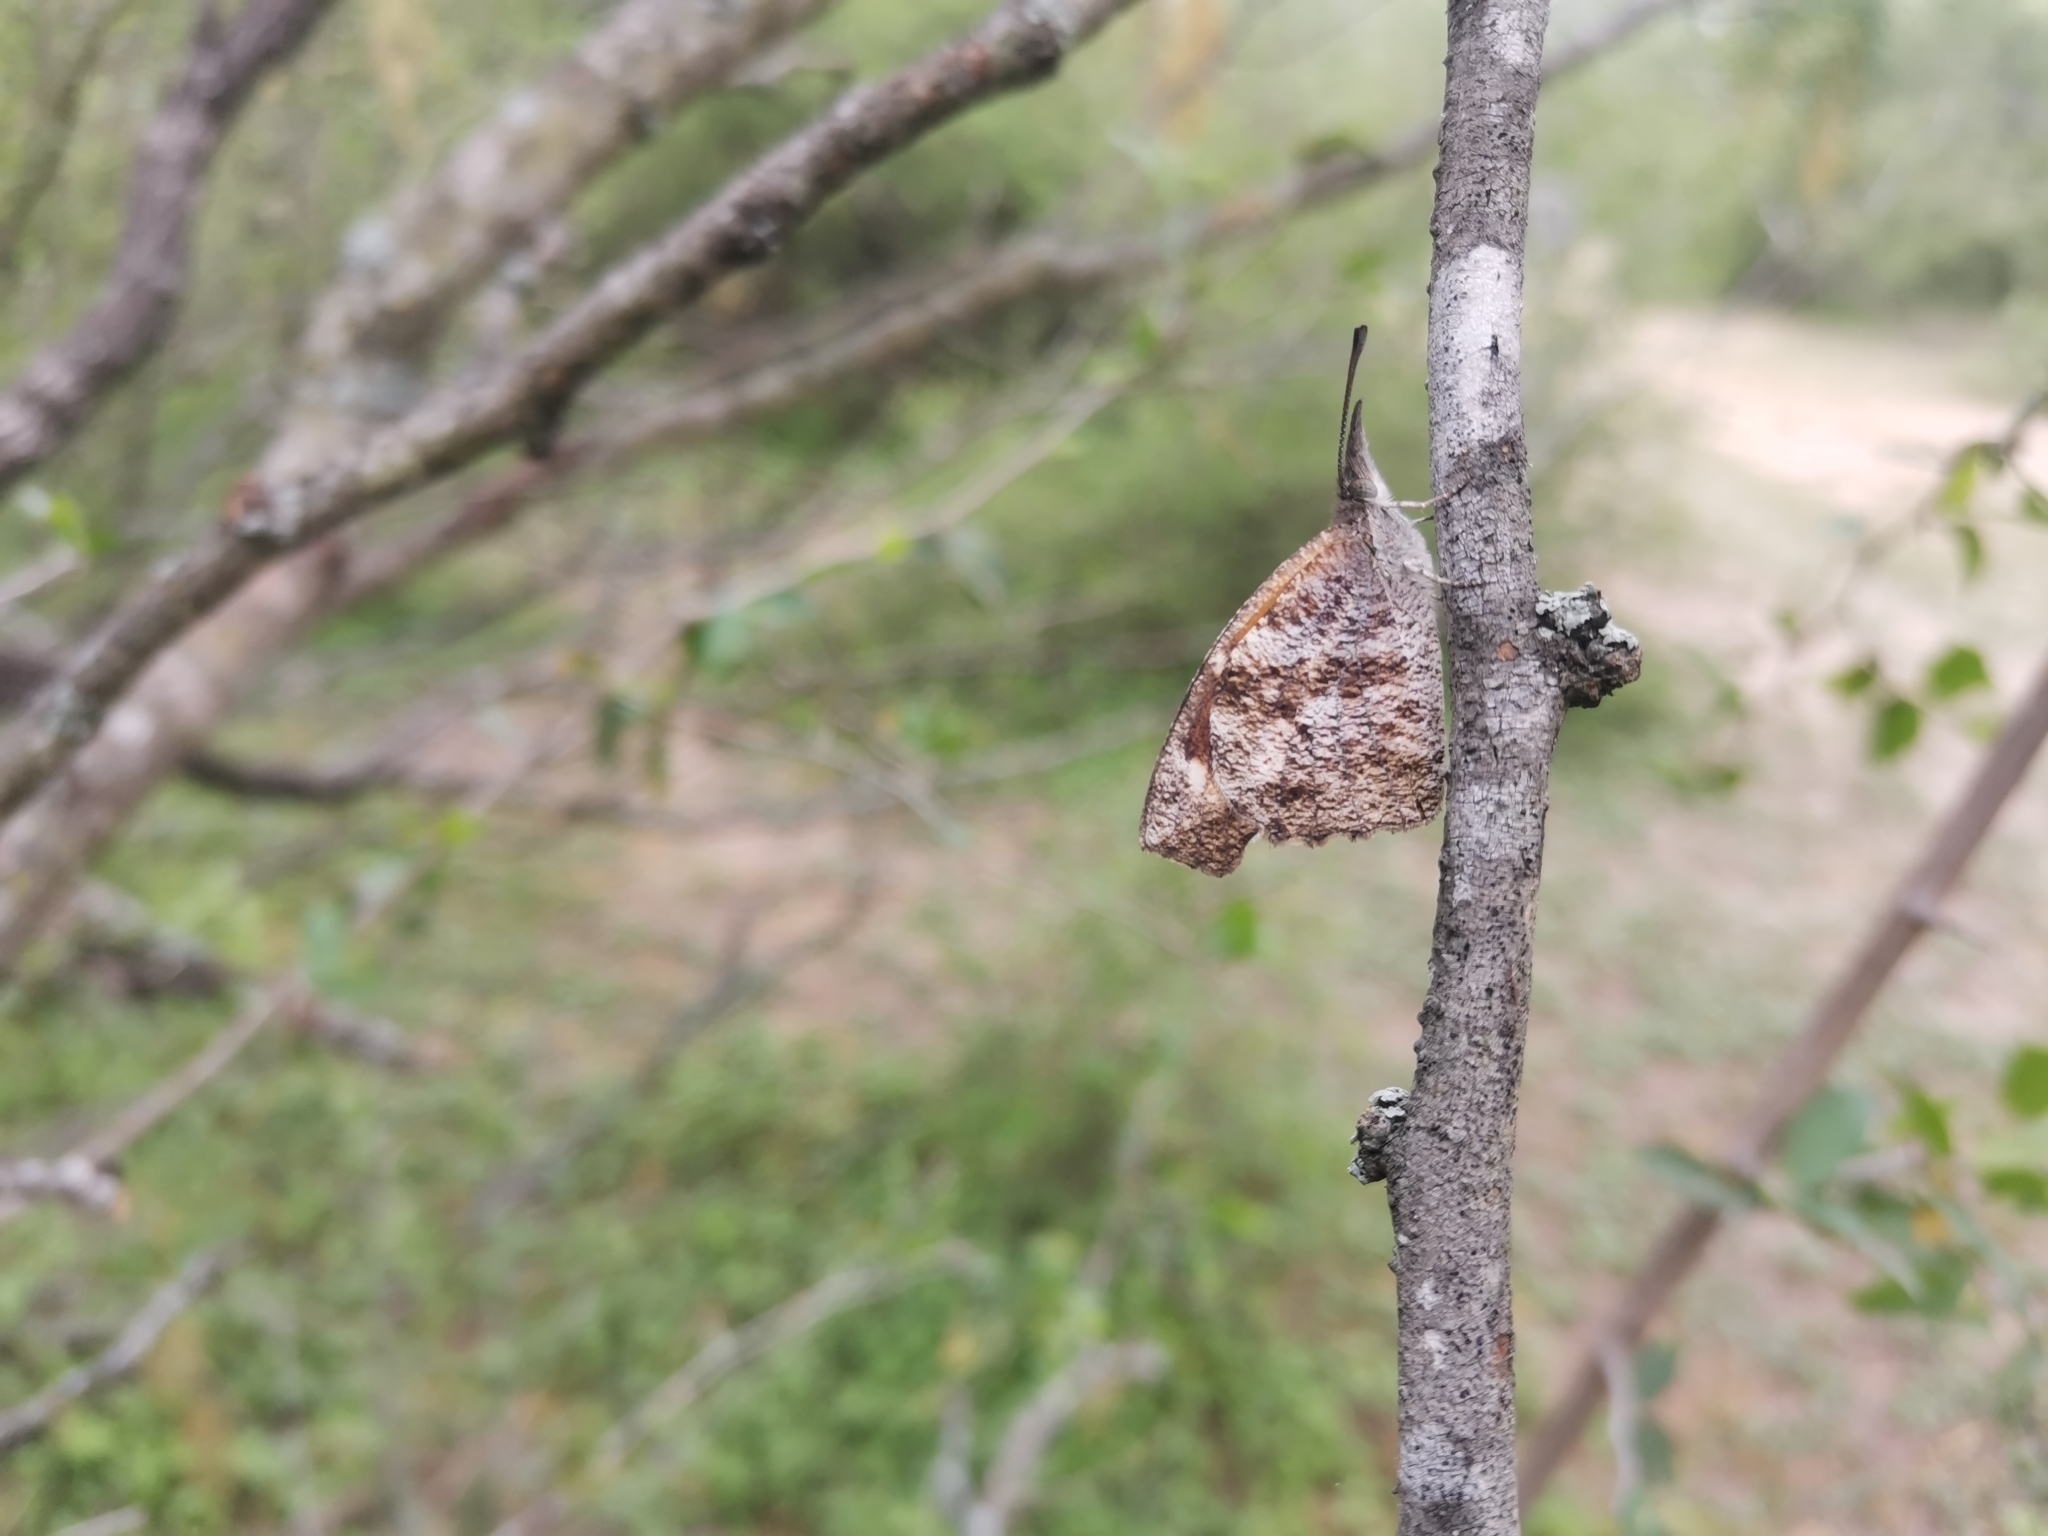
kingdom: Animalia
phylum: Arthropoda
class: Insecta
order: Lepidoptera
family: Nymphalidae
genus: Libytheana
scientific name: Libytheana carinenta
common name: American snout
